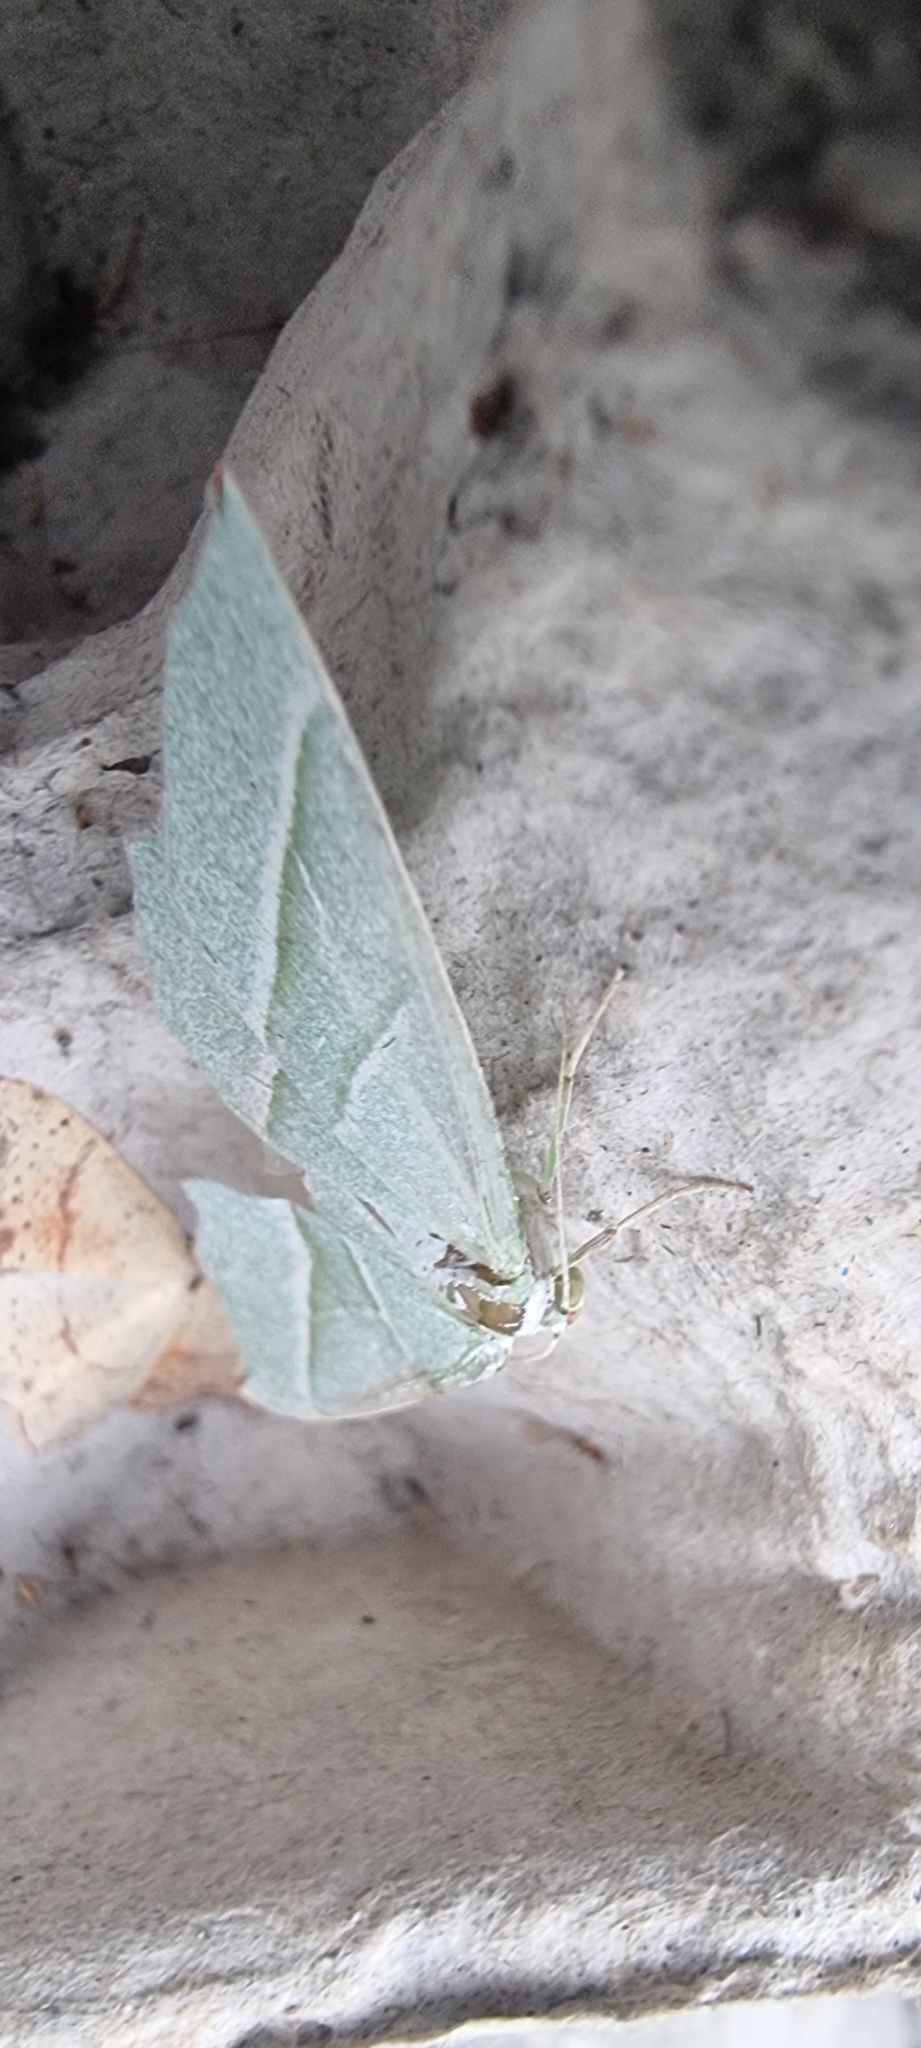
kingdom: Animalia
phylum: Arthropoda
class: Insecta
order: Lepidoptera
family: Geometridae
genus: Campaea
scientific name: Campaea margaritaria
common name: Light emerald
